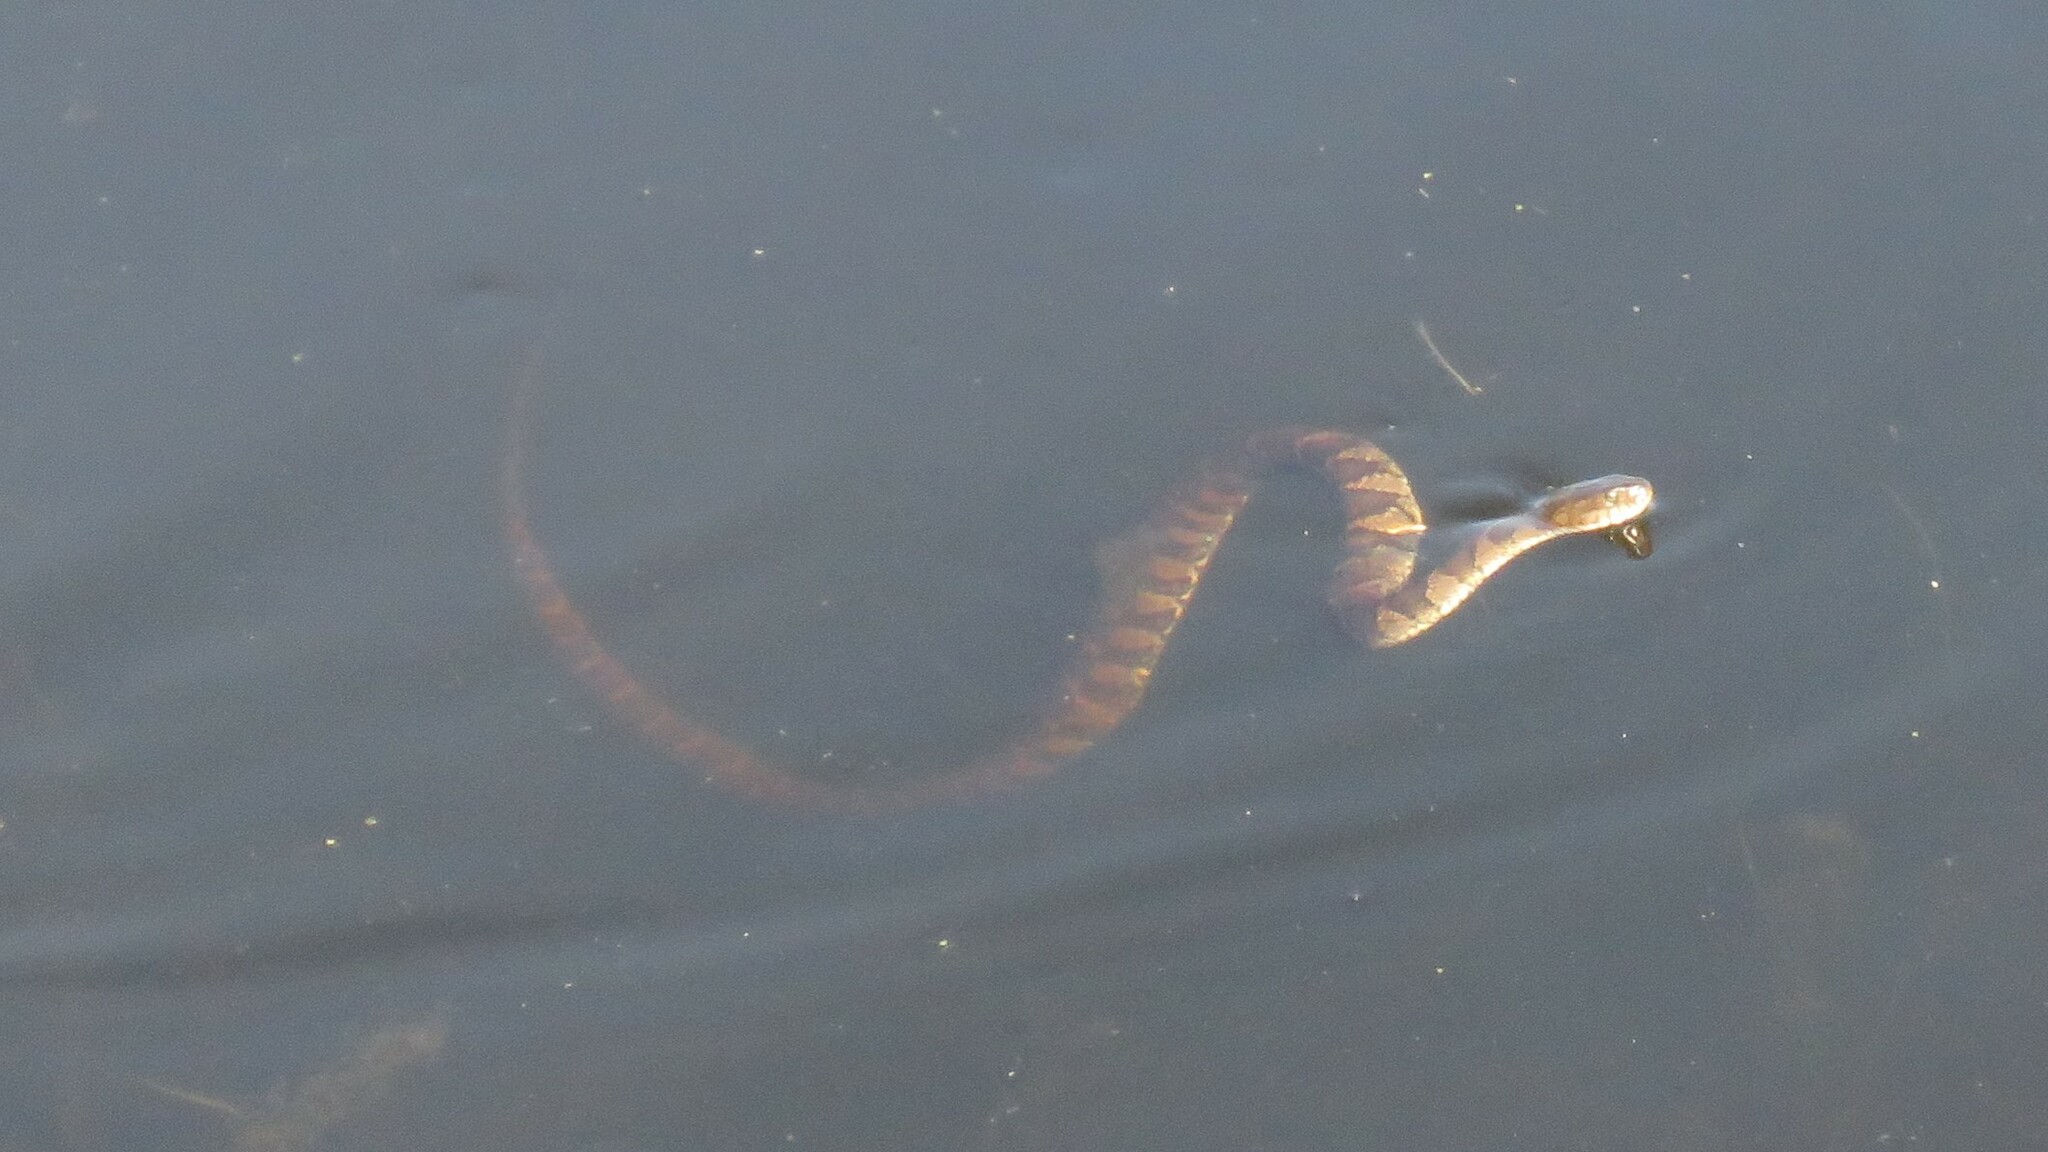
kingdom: Animalia
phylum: Chordata
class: Squamata
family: Colubridae
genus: Nerodia
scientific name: Nerodia sipedon
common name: Northern water snake
